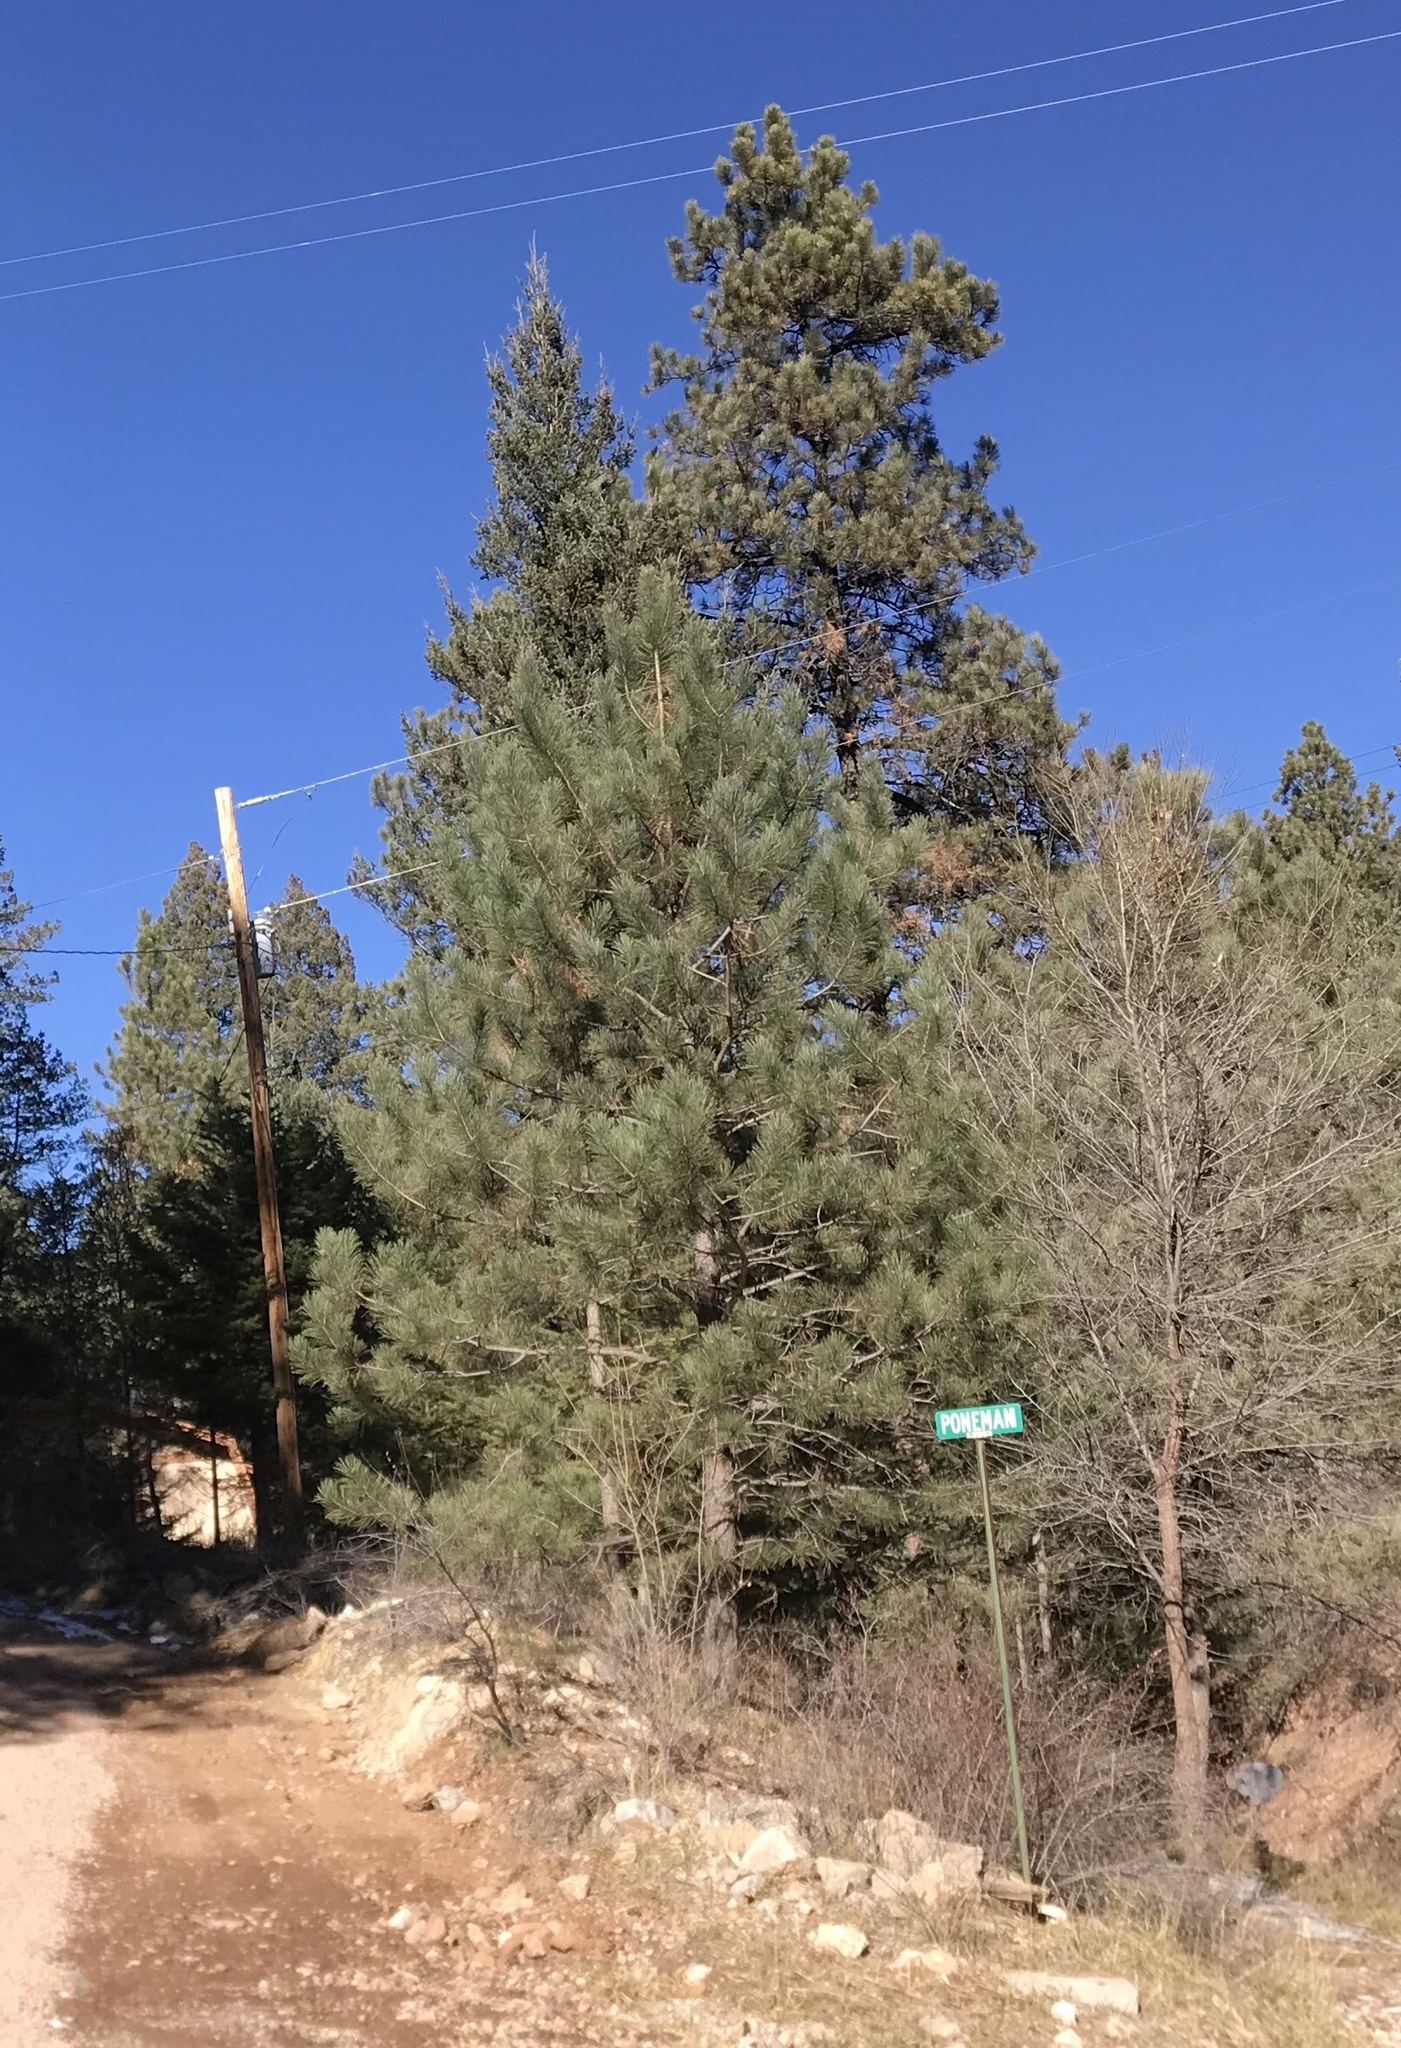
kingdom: Plantae
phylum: Tracheophyta
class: Pinopsida
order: Pinales
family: Pinaceae
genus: Pinus
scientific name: Pinus ponderosa
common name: Western yellow-pine
